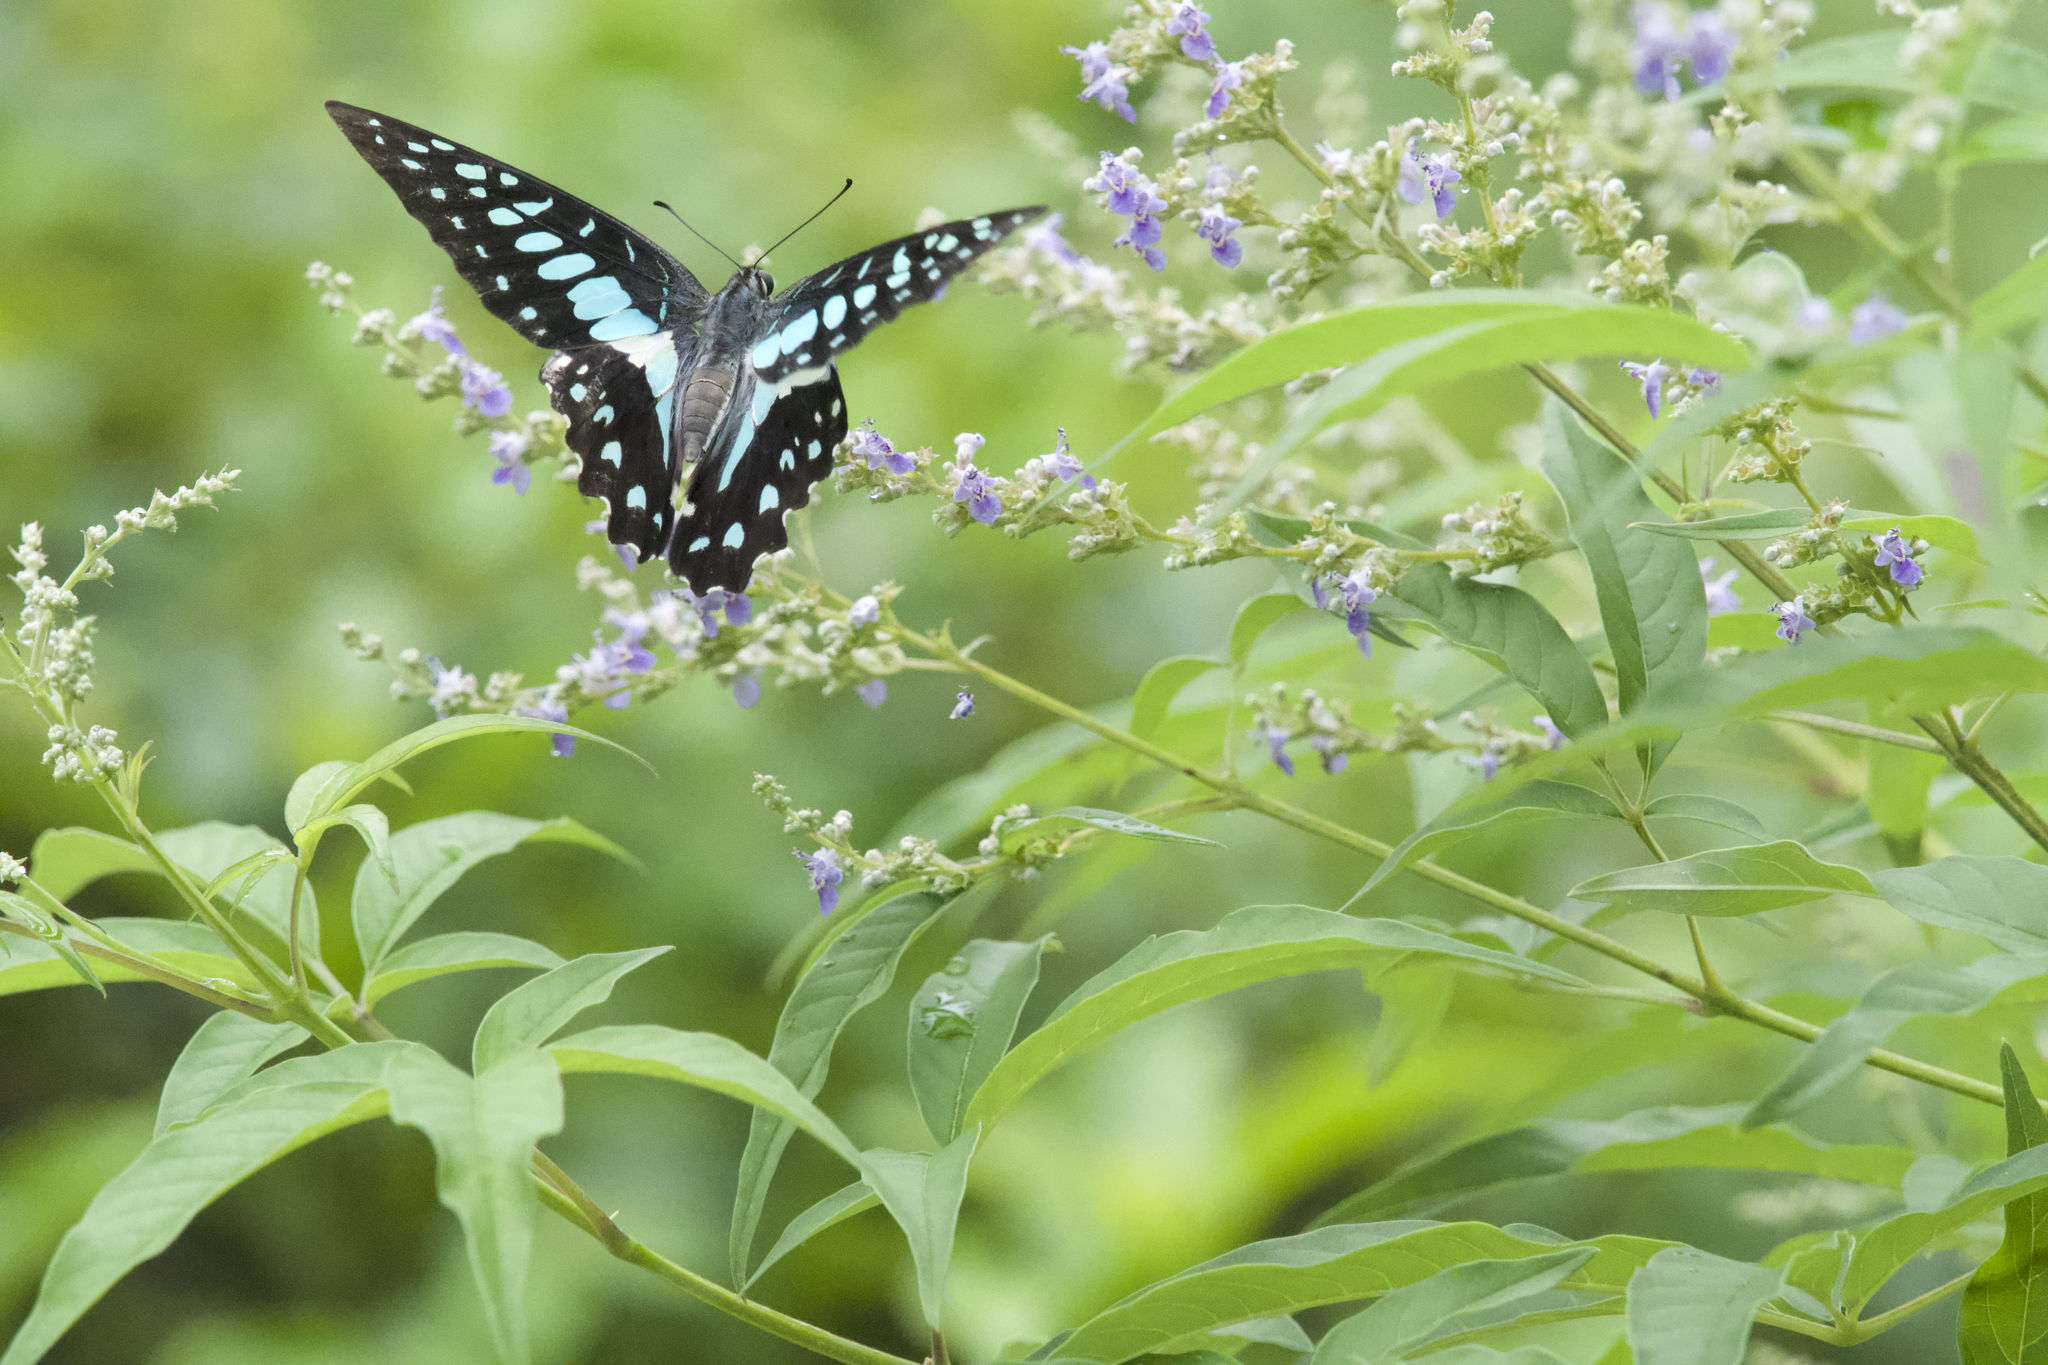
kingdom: Animalia
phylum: Arthropoda
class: Insecta
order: Lepidoptera
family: Papilionidae
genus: Graphium
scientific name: Graphium doson
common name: Common jay
